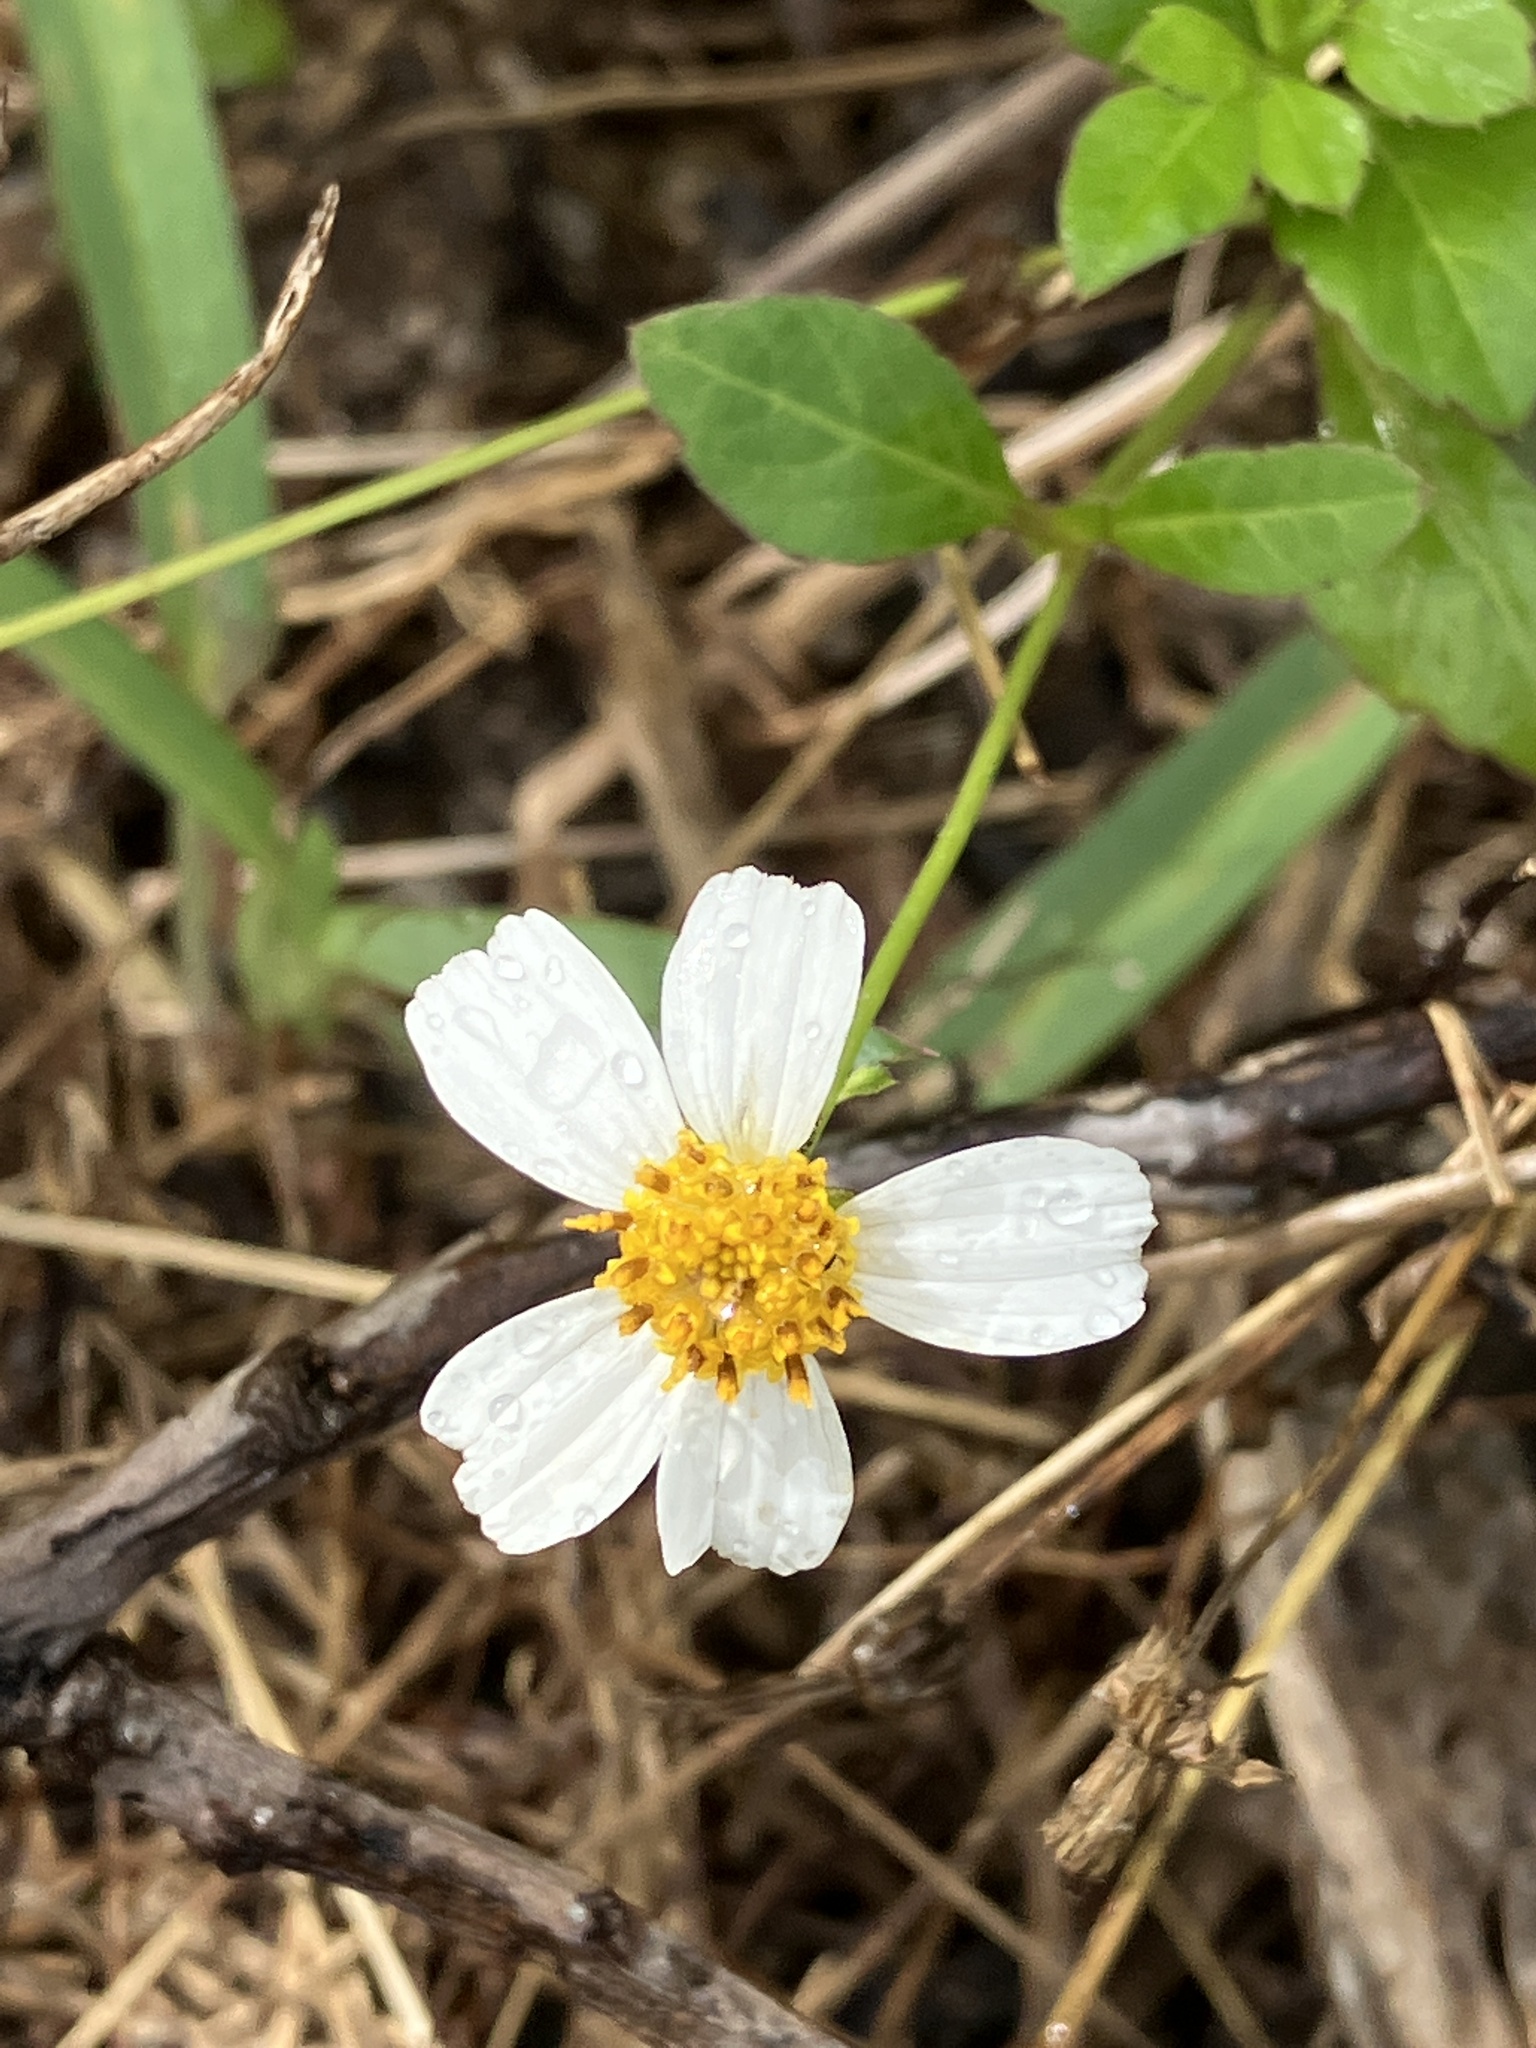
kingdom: Plantae
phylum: Tracheophyta
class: Magnoliopsida
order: Asterales
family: Asteraceae
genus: Bidens
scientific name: Bidens pilosa
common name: Black-jack
